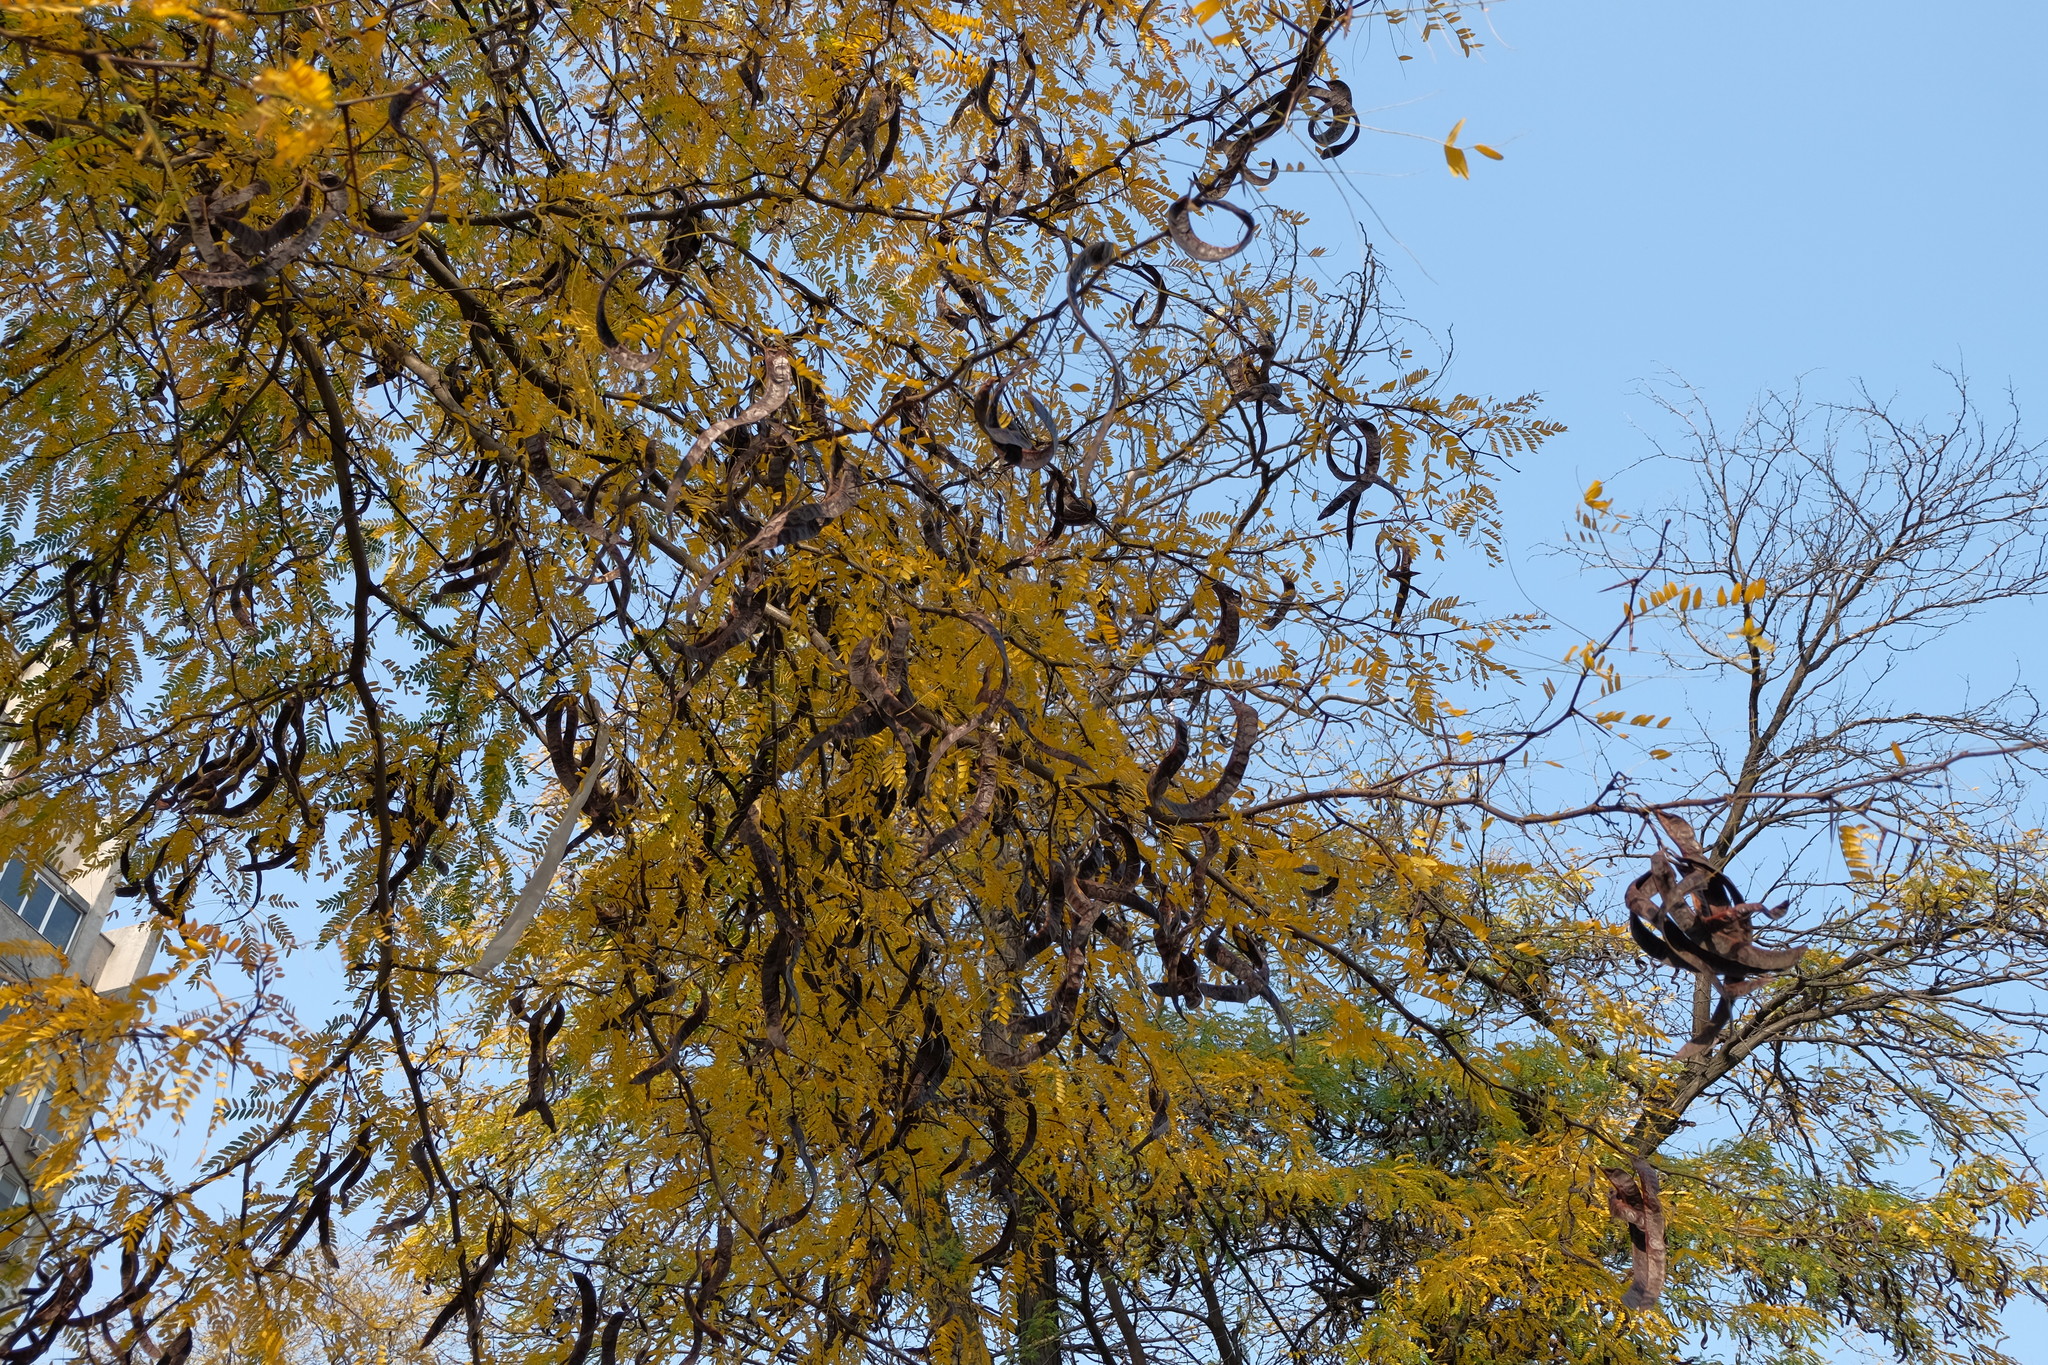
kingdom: Plantae
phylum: Tracheophyta
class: Magnoliopsida
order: Fabales
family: Fabaceae
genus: Gleditsia
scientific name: Gleditsia triacanthos
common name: Common honeylocust
